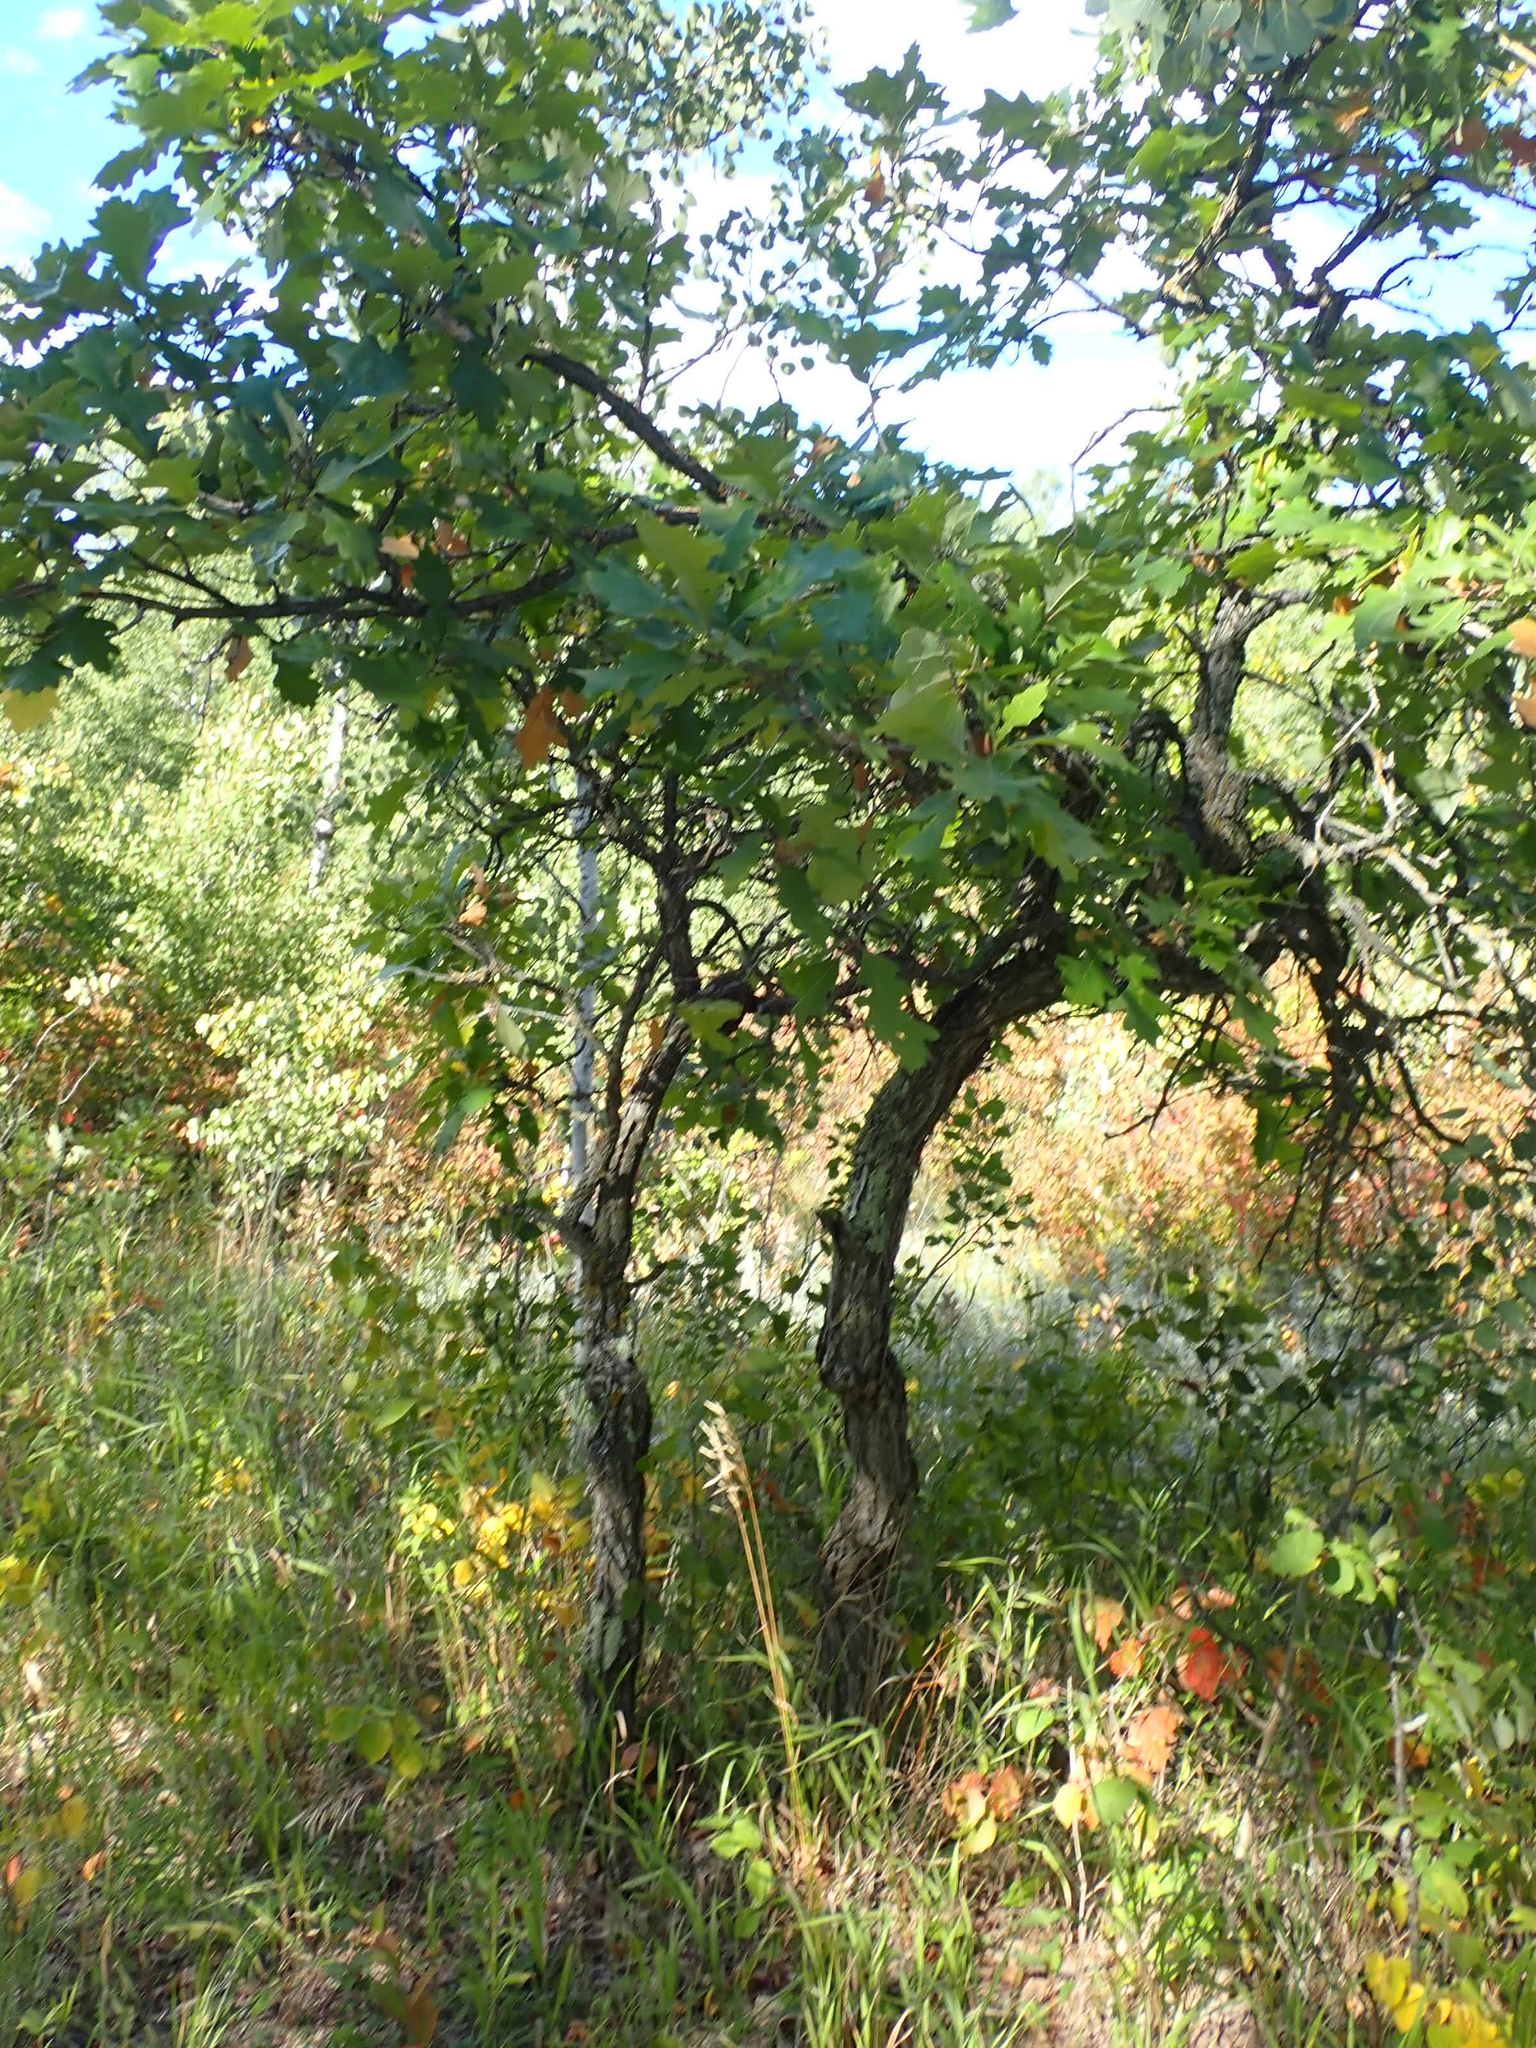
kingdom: Plantae
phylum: Tracheophyta
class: Magnoliopsida
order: Fagales
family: Fagaceae
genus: Quercus
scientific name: Quercus macrocarpa
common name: Bur oak
